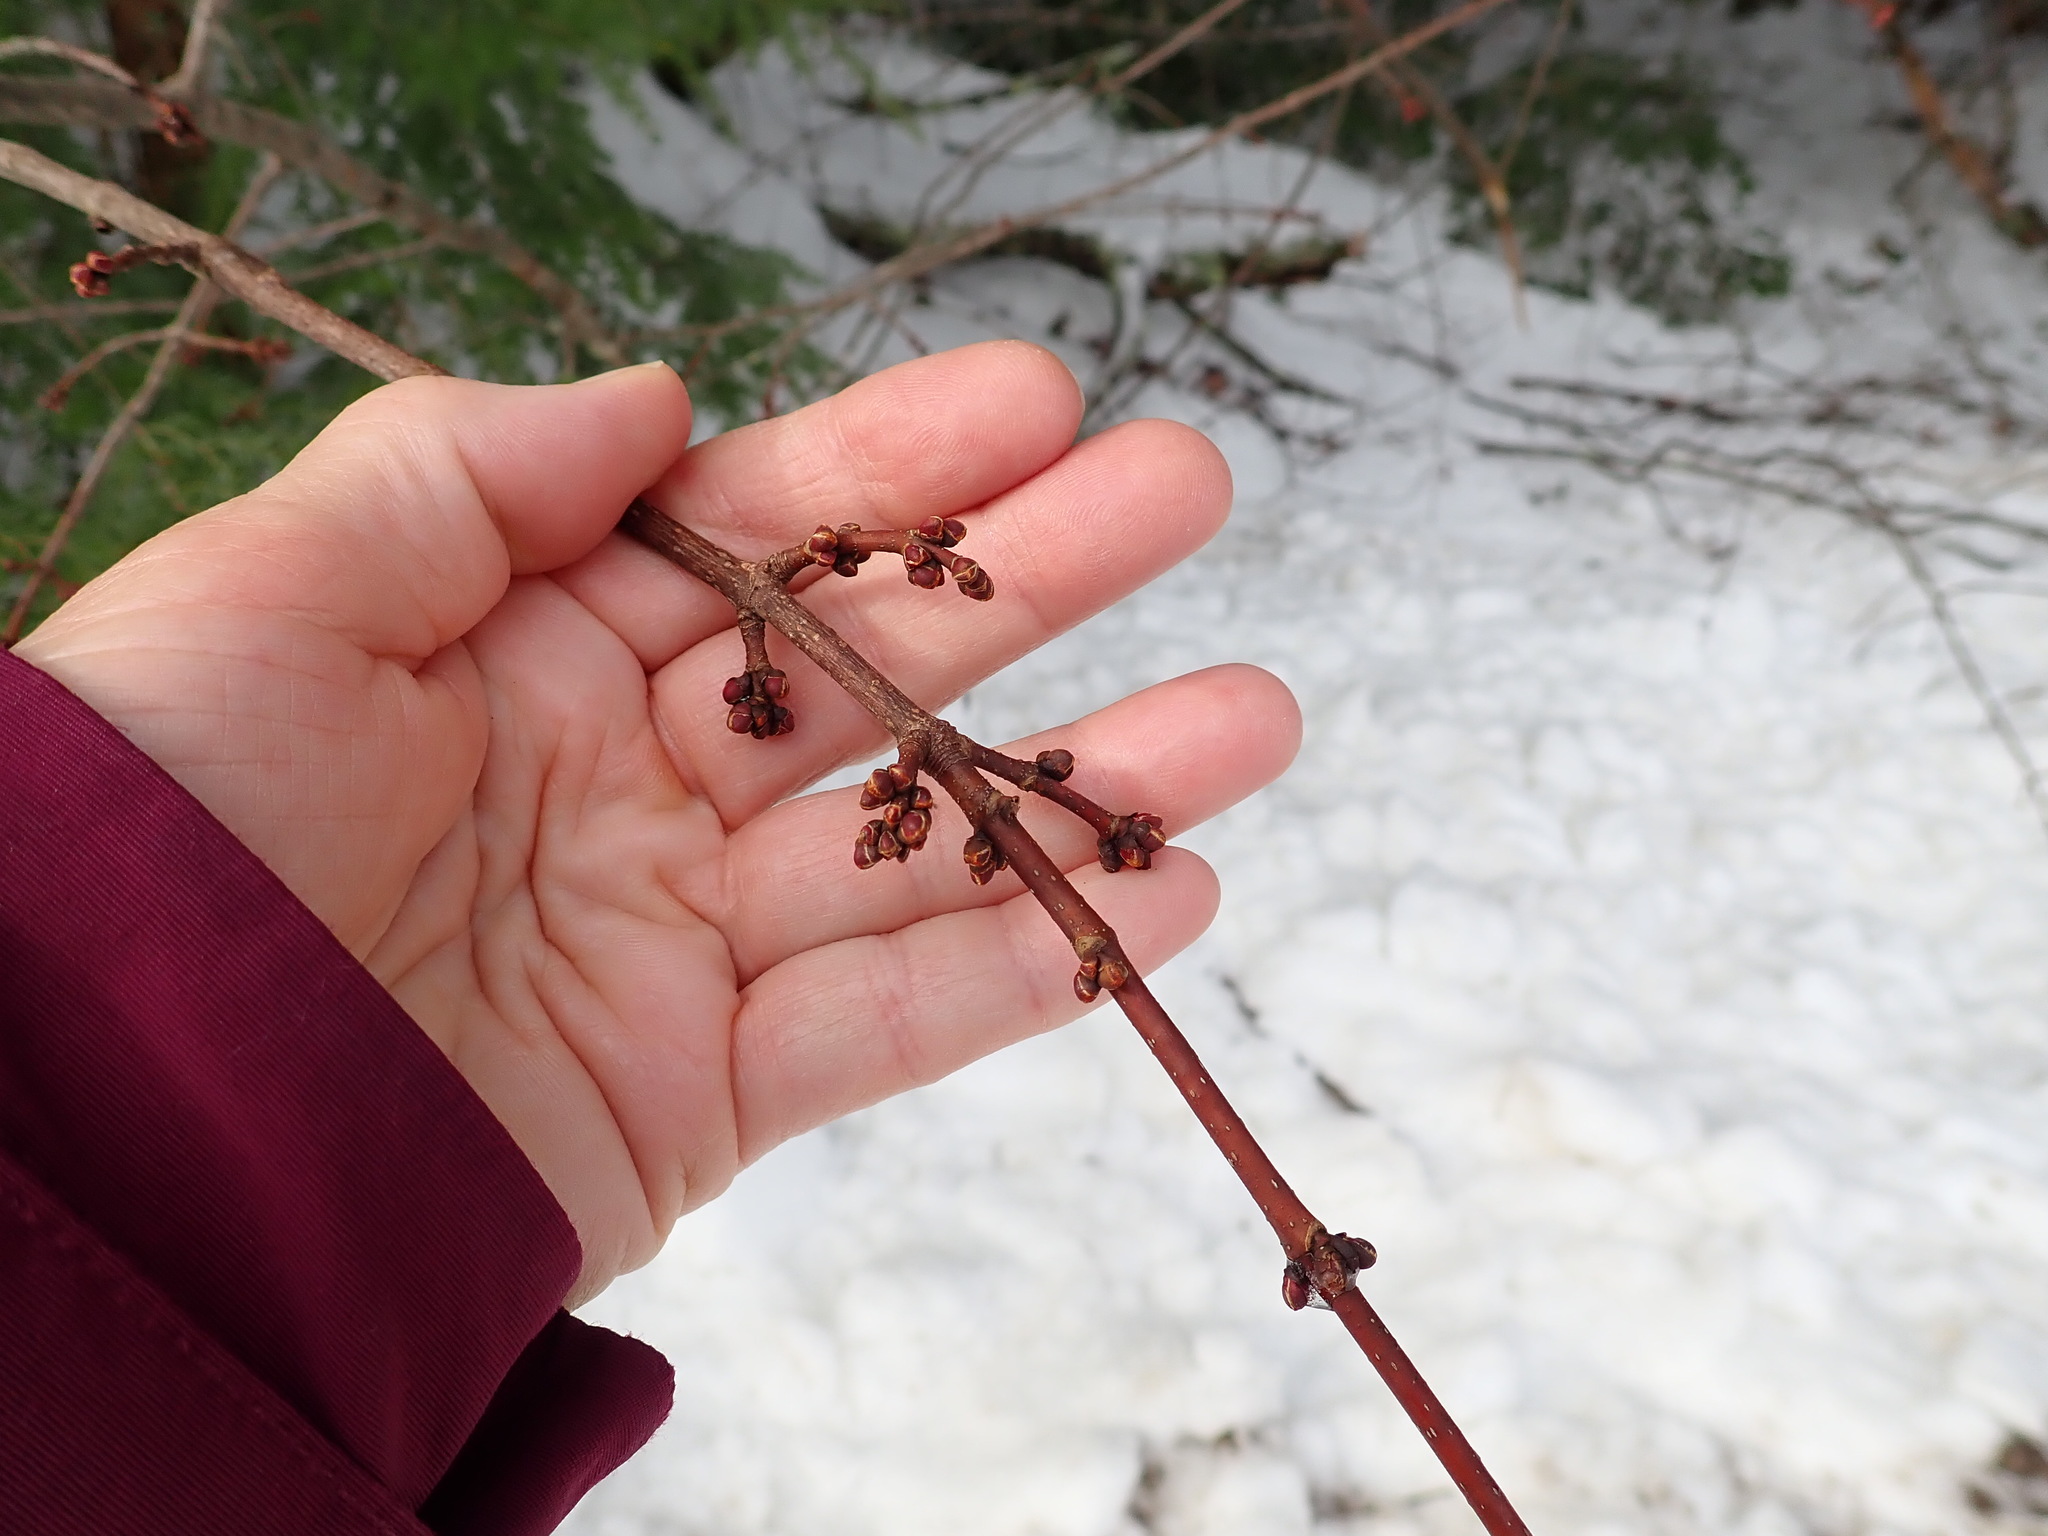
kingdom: Plantae
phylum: Tracheophyta
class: Magnoliopsida
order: Sapindales
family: Sapindaceae
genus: Acer
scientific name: Acer rubrum
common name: Red maple
